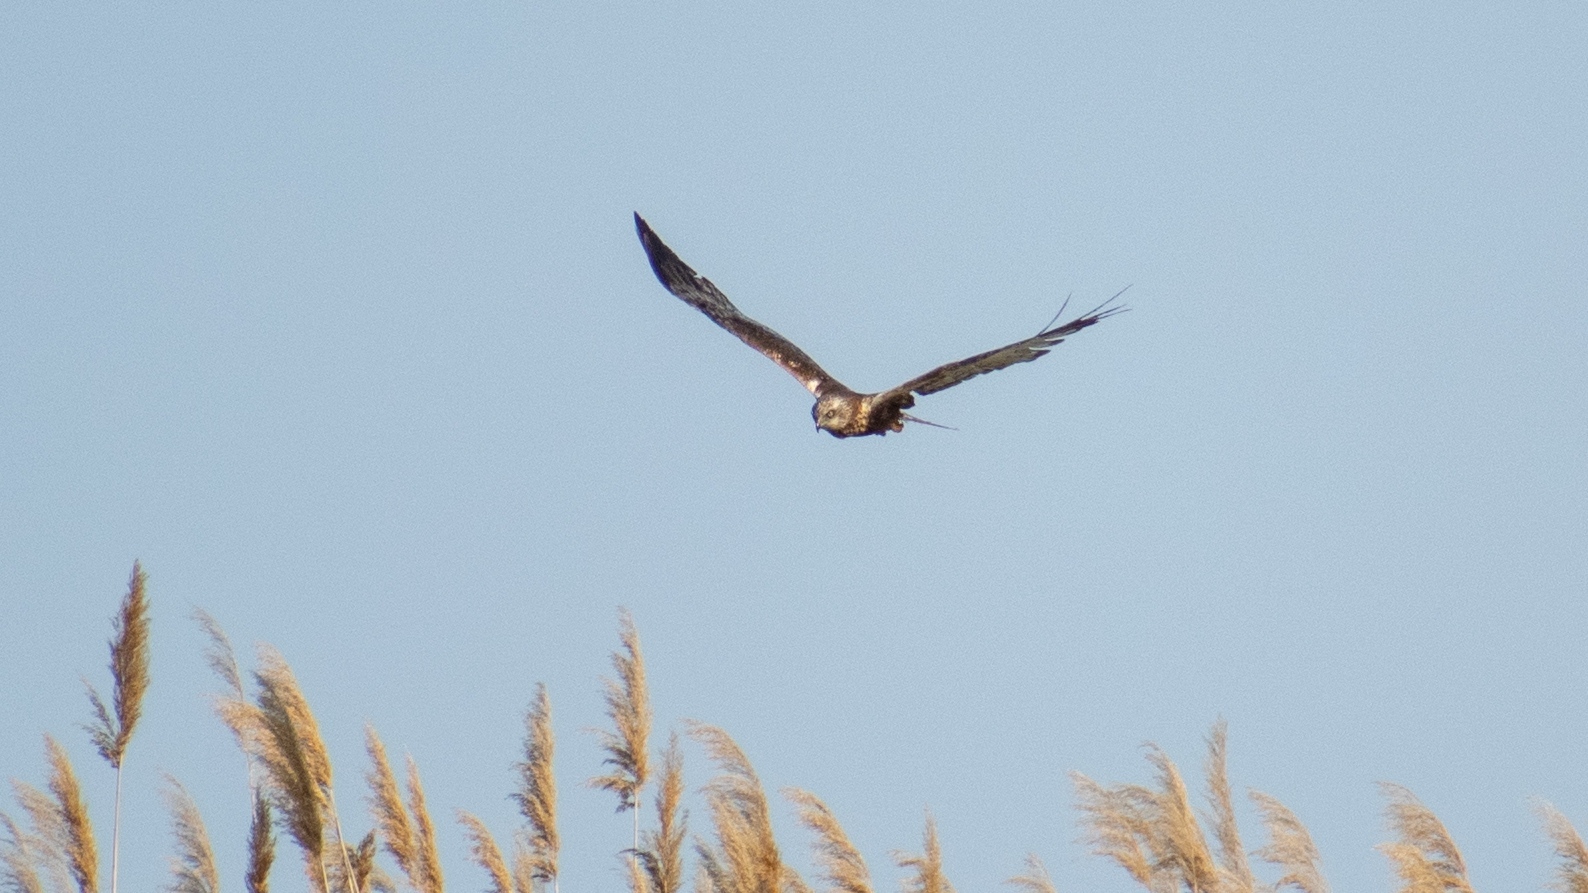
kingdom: Animalia
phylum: Chordata
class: Aves
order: Accipitriformes
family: Accipitridae
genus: Circus
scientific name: Circus aeruginosus
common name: Western marsh harrier
